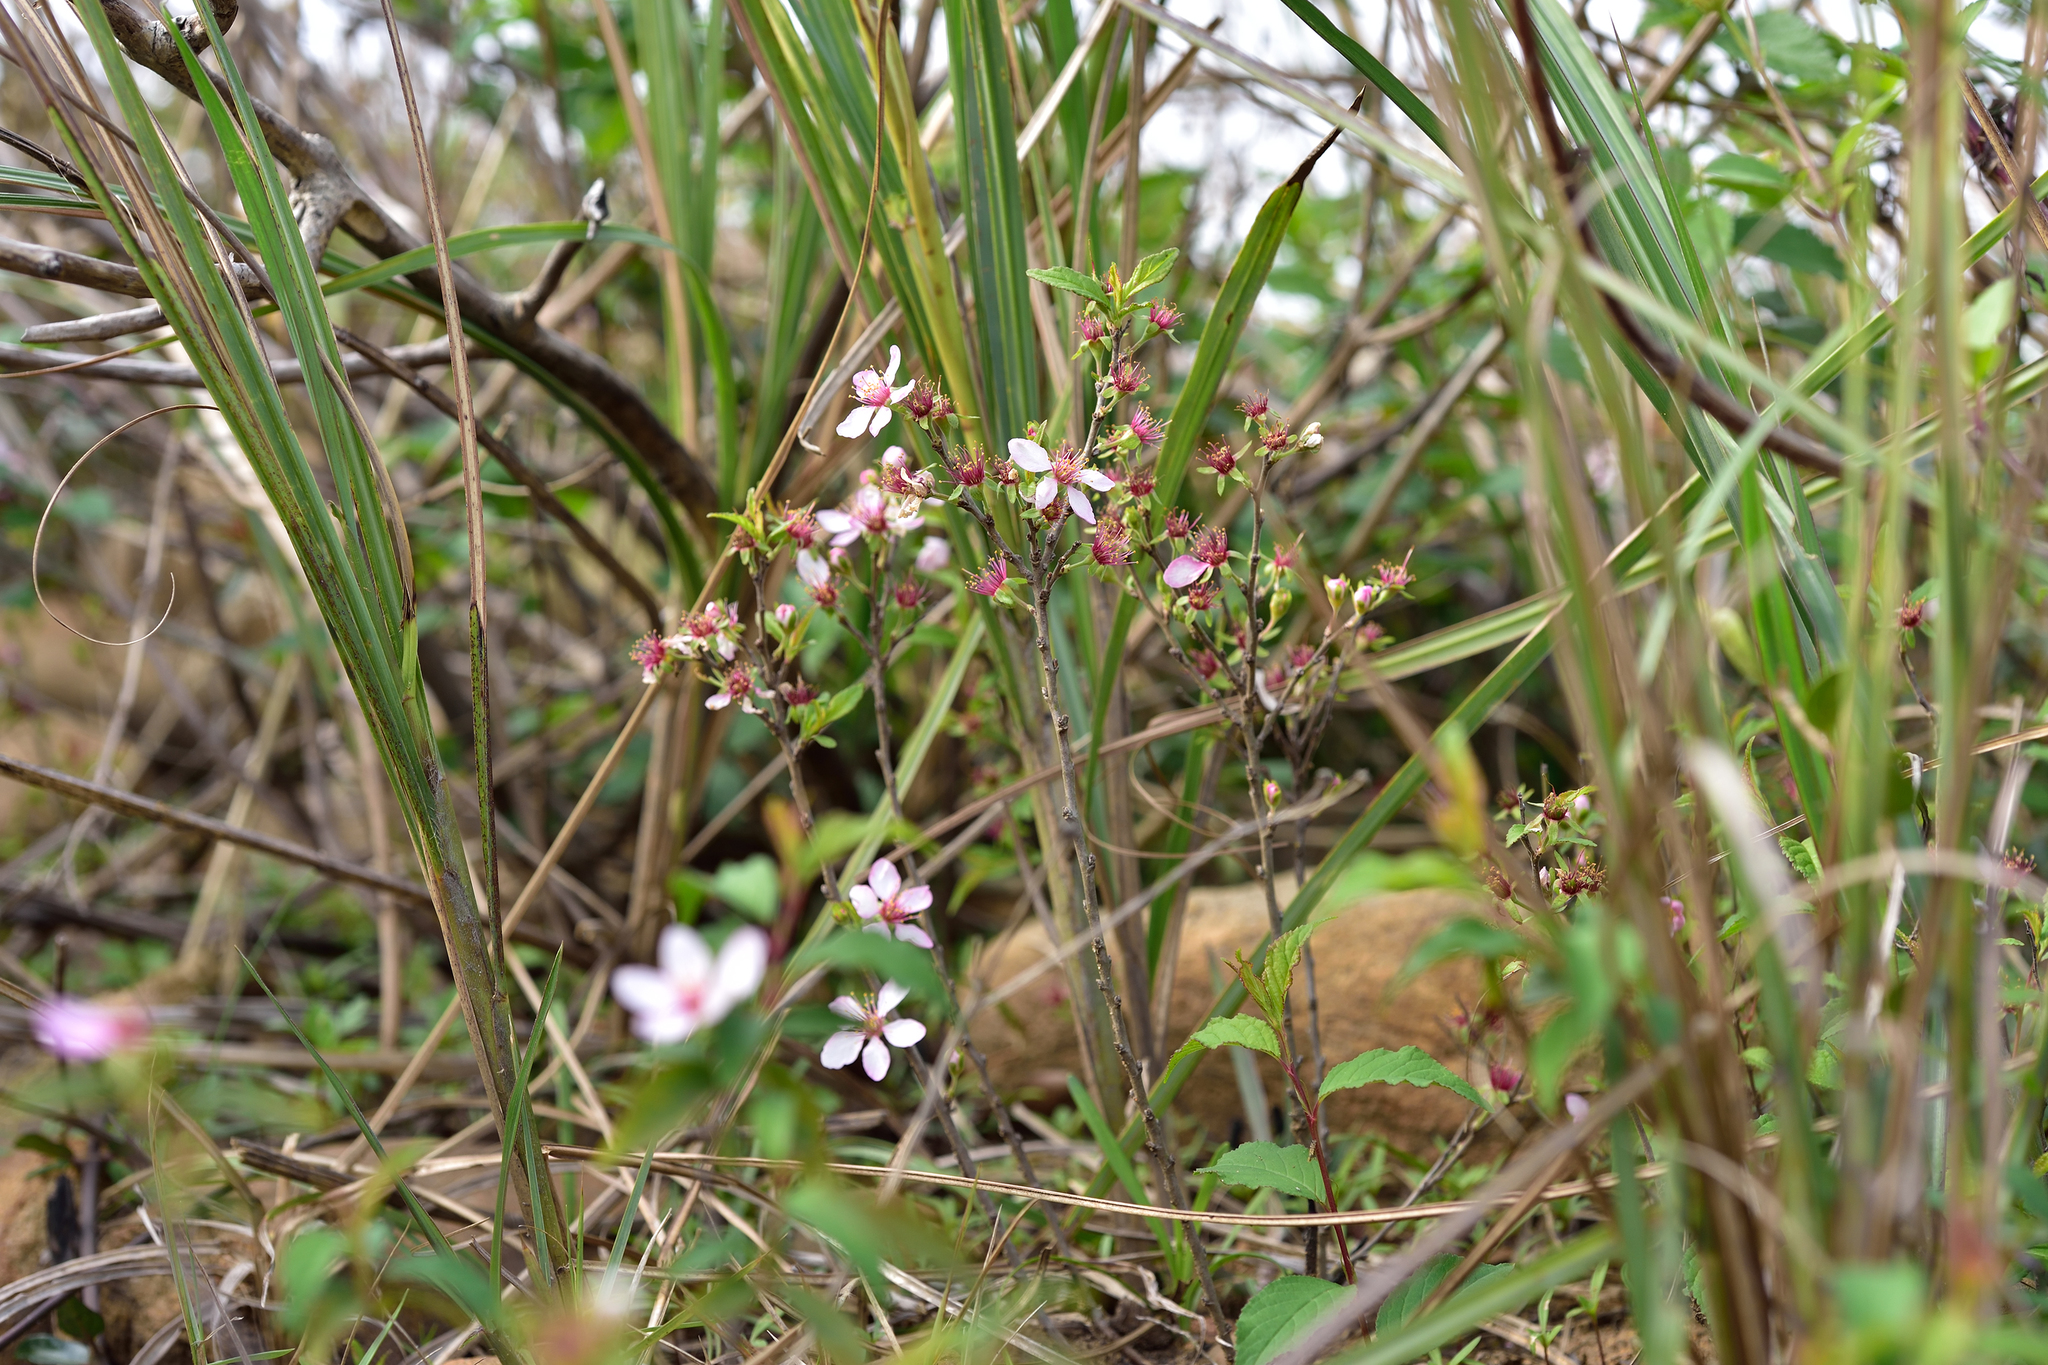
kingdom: Plantae
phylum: Tracheophyta
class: Magnoliopsida
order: Rosales
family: Rosaceae
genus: Prunus
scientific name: Prunus pogonostyla
